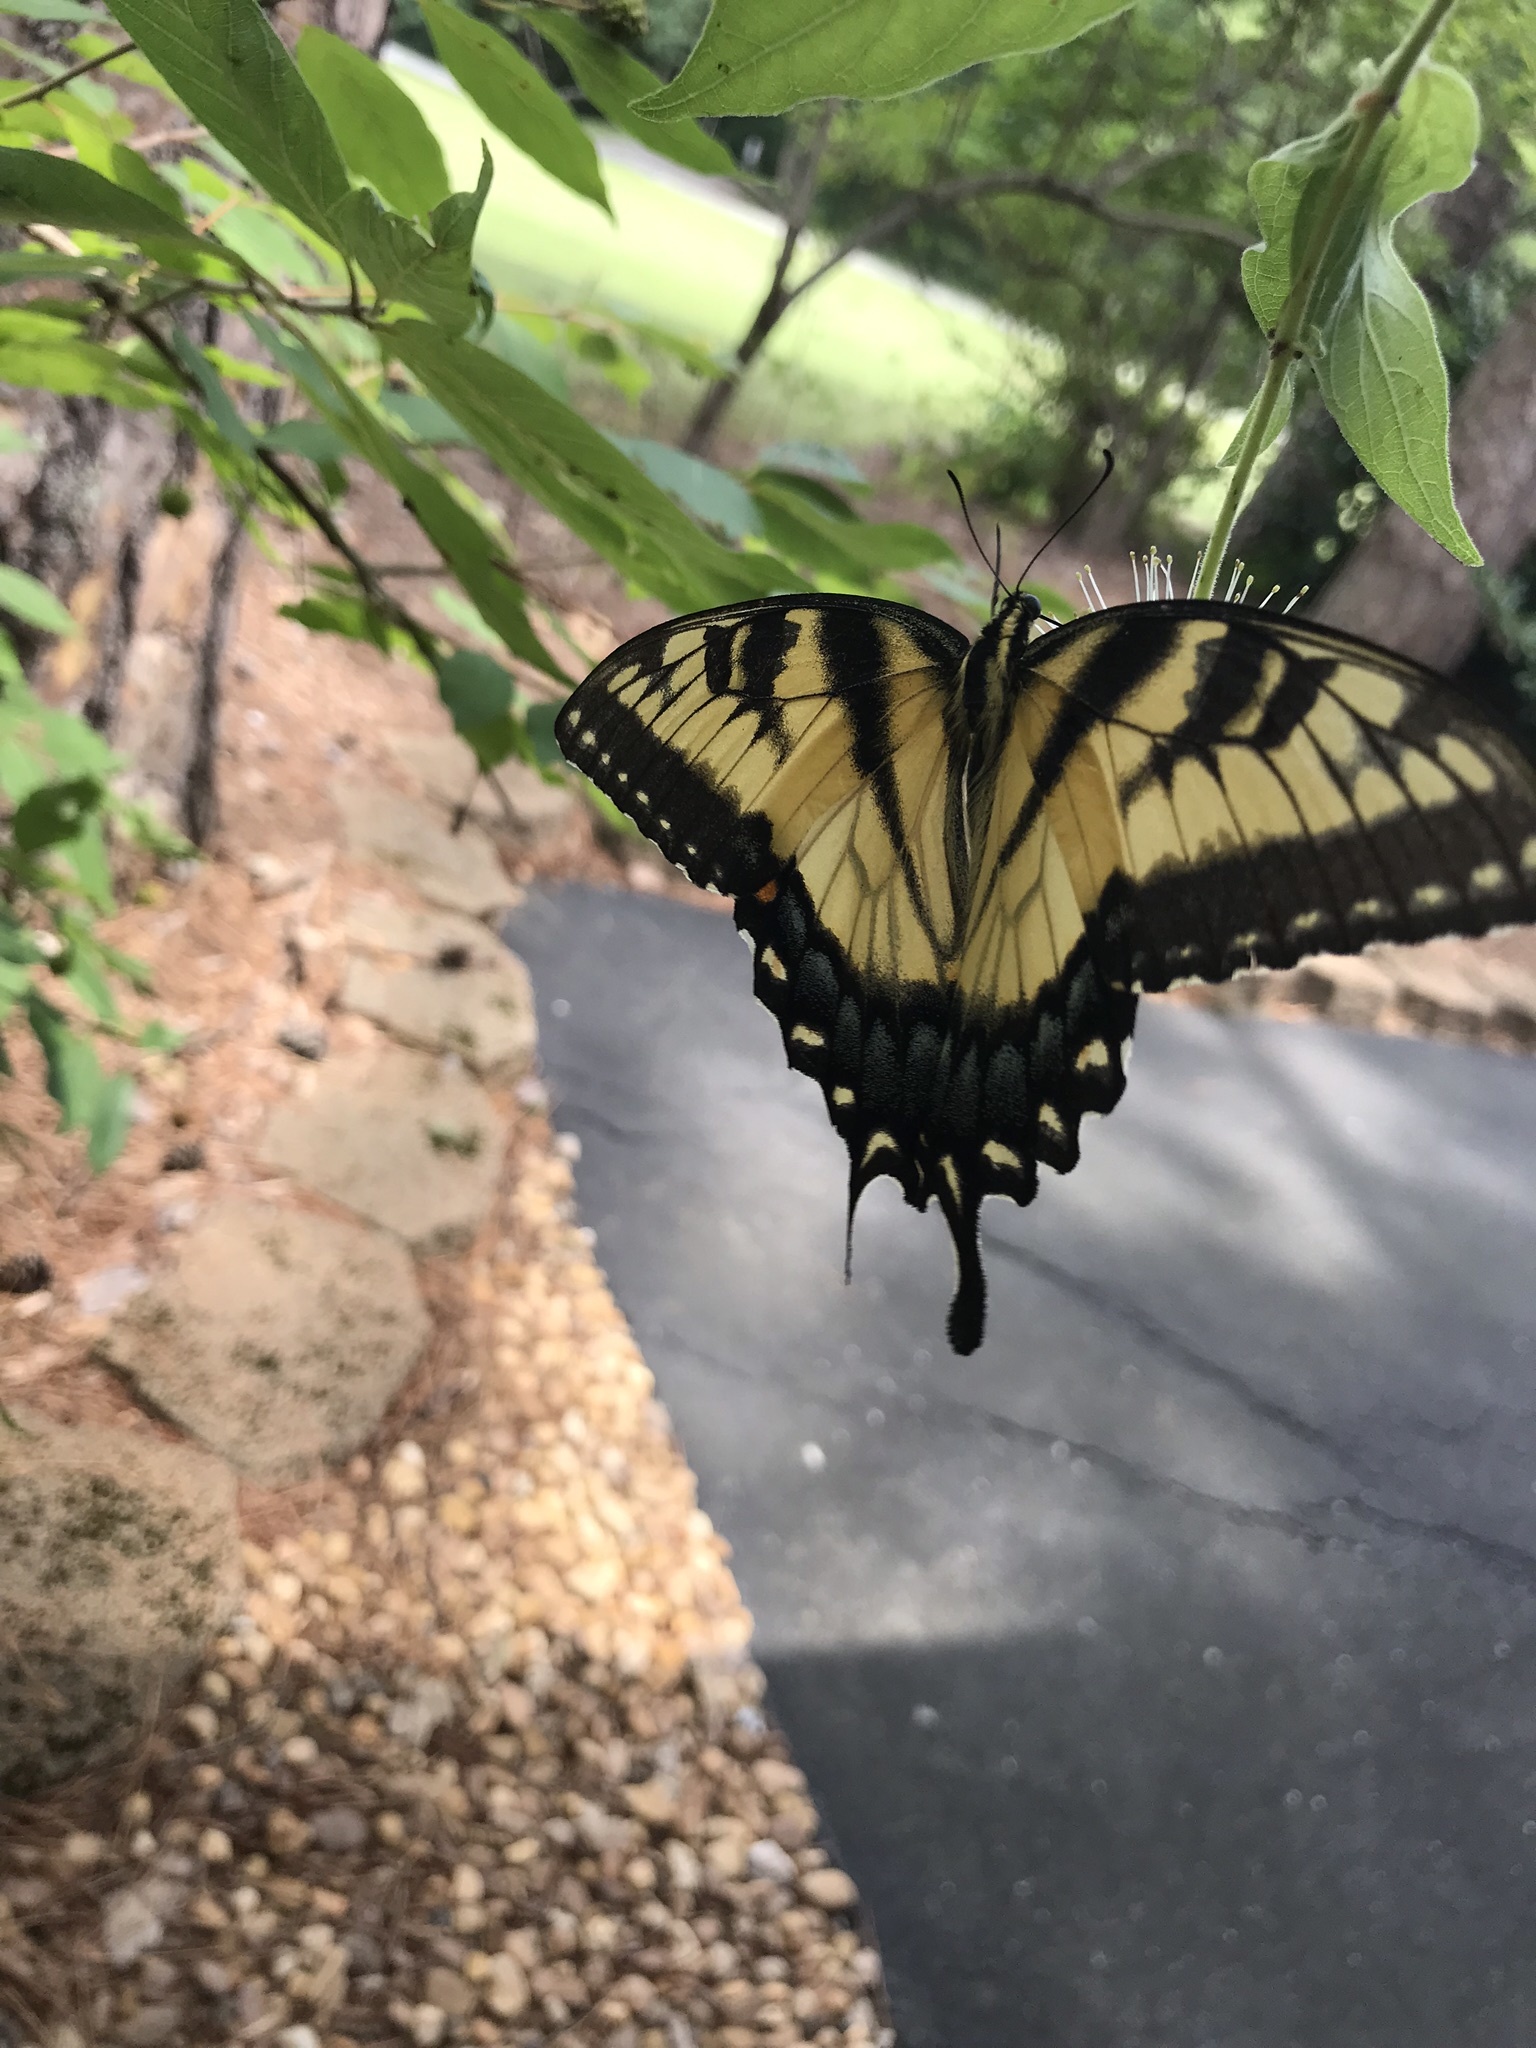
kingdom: Animalia
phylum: Arthropoda
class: Insecta
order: Lepidoptera
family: Papilionidae
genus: Papilio
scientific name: Papilio glaucus
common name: Tiger swallowtail
